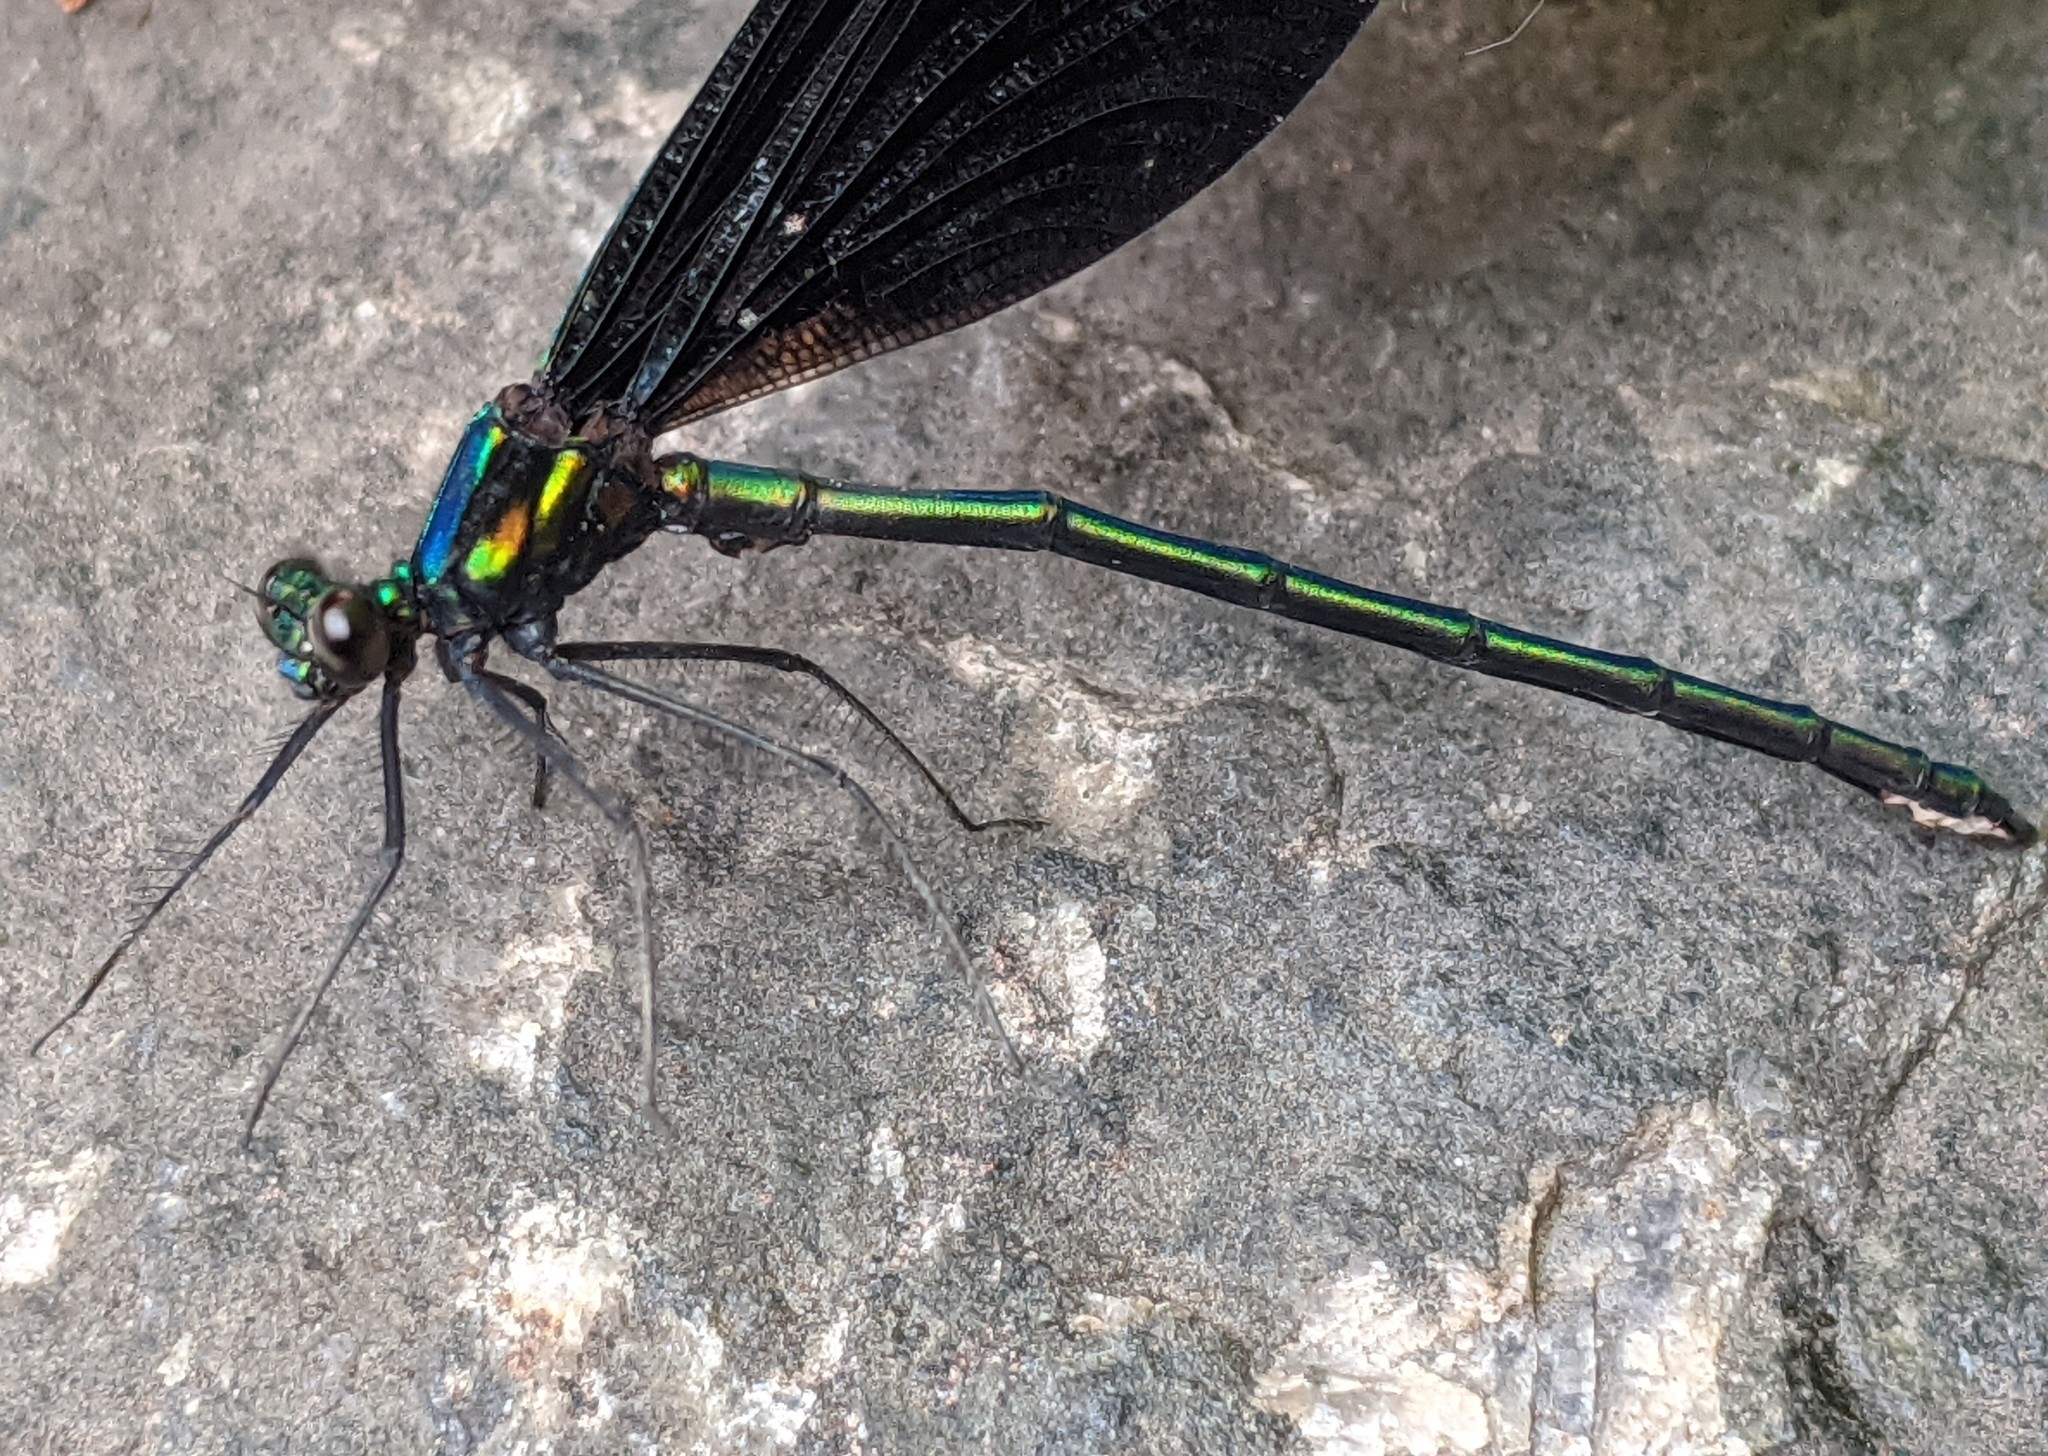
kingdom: Animalia
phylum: Arthropoda
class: Insecta
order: Odonata
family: Calopterygidae
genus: Calopteryx
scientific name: Calopteryx maculata
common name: Ebony jewelwing
